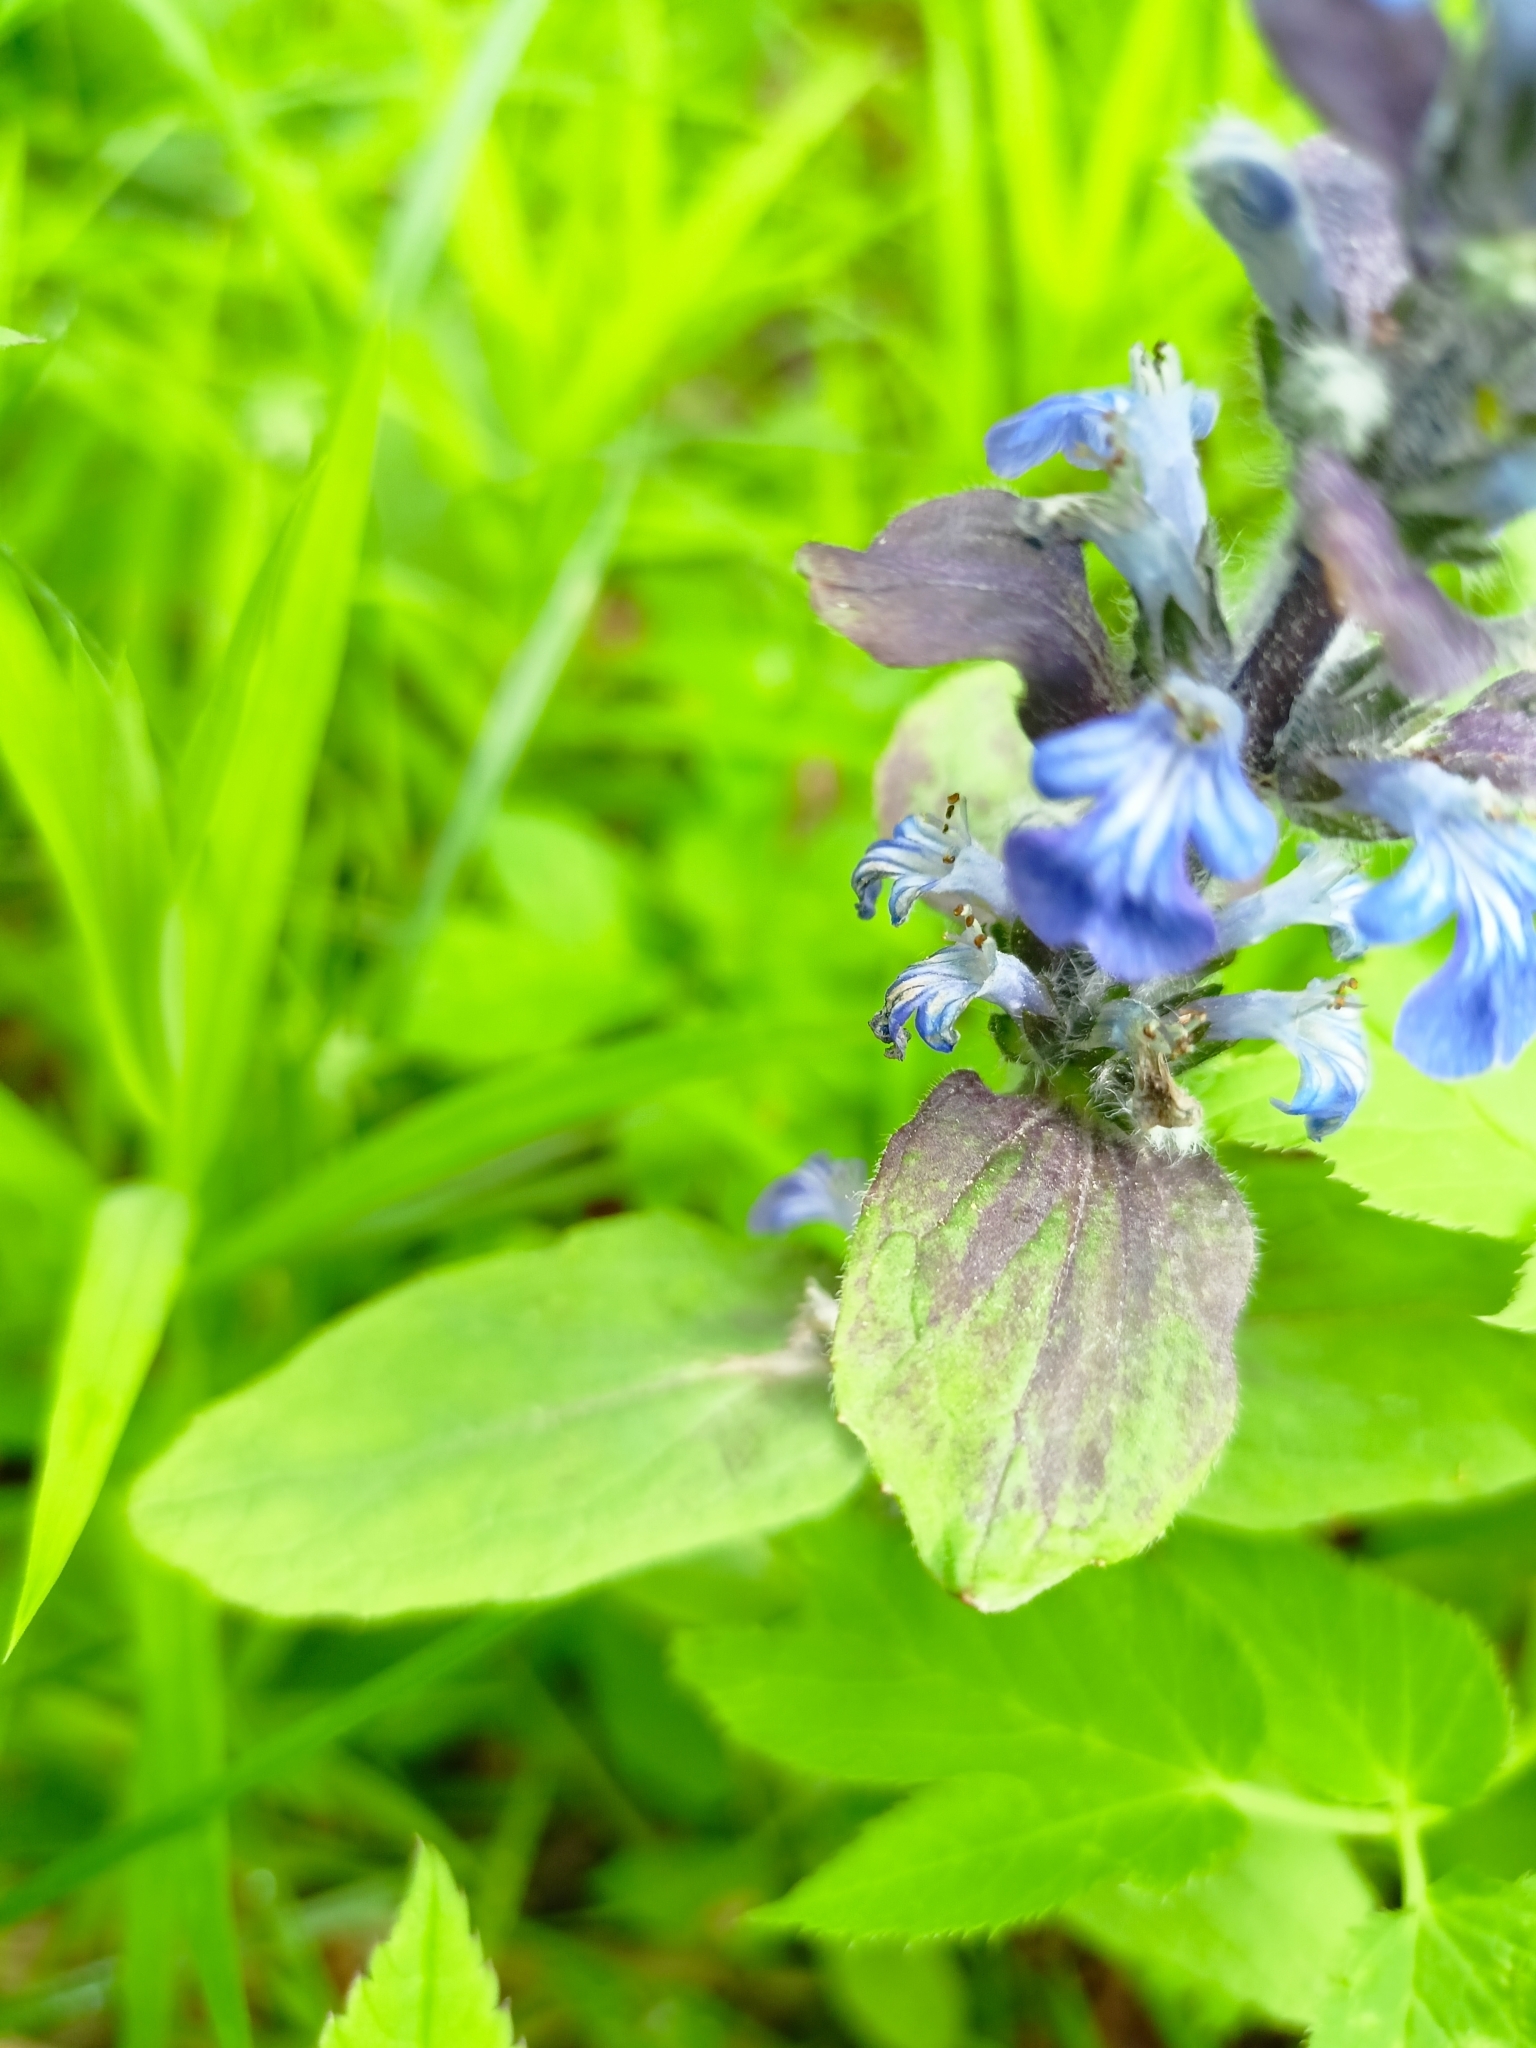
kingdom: Plantae
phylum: Tracheophyta
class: Magnoliopsida
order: Lamiales
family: Lamiaceae
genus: Ajuga
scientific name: Ajuga reptans
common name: Bugle
